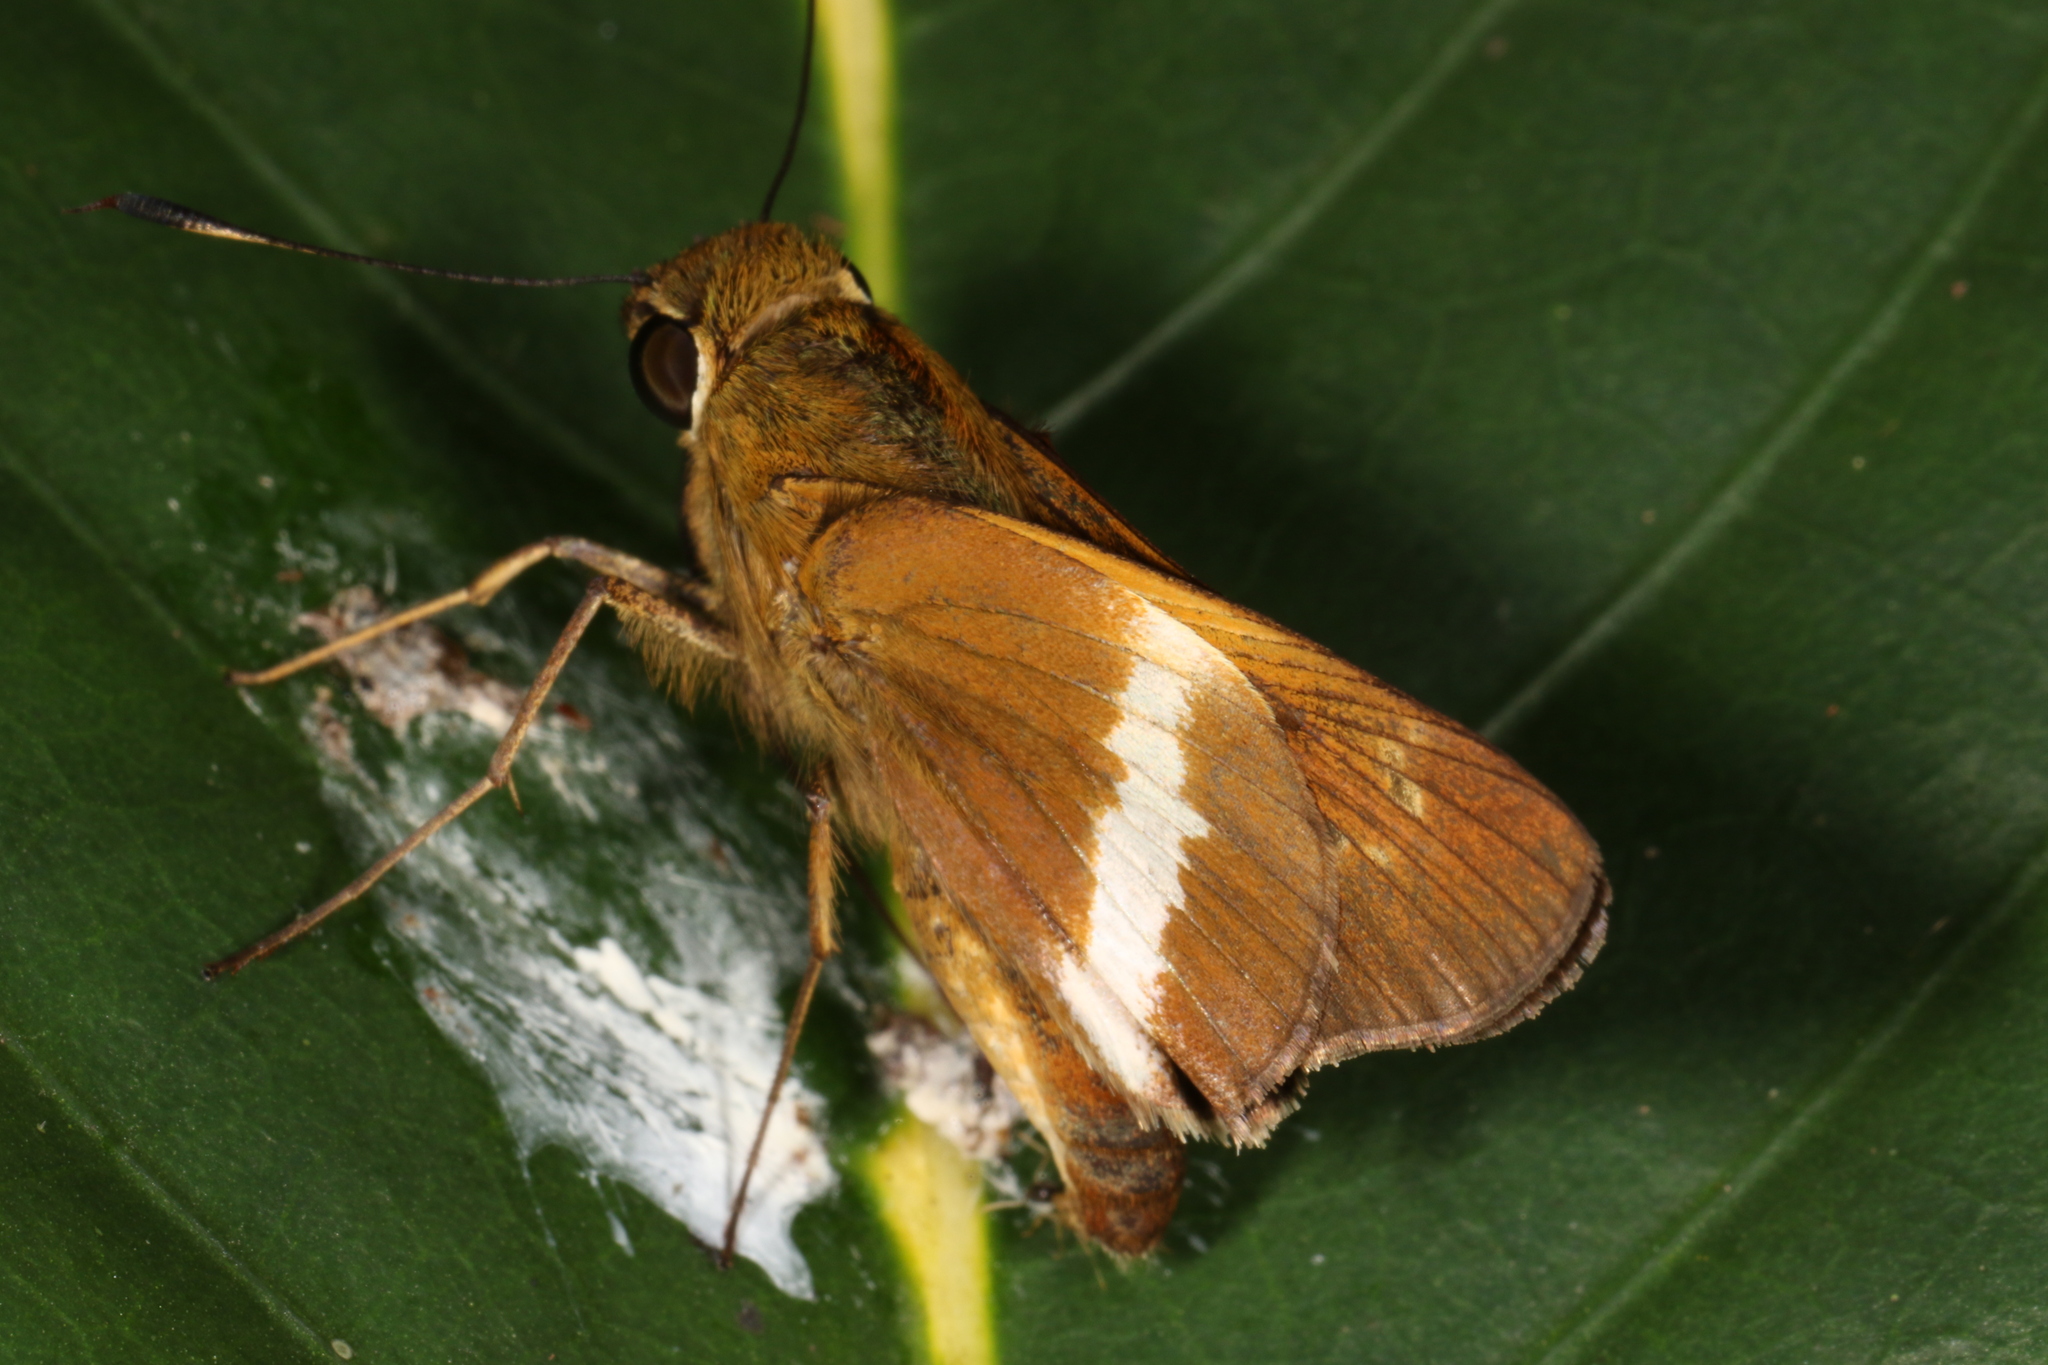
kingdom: Animalia
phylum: Arthropoda
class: Insecta
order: Lepidoptera
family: Hesperiidae
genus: Tirynthia
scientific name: Tirynthia conflua
